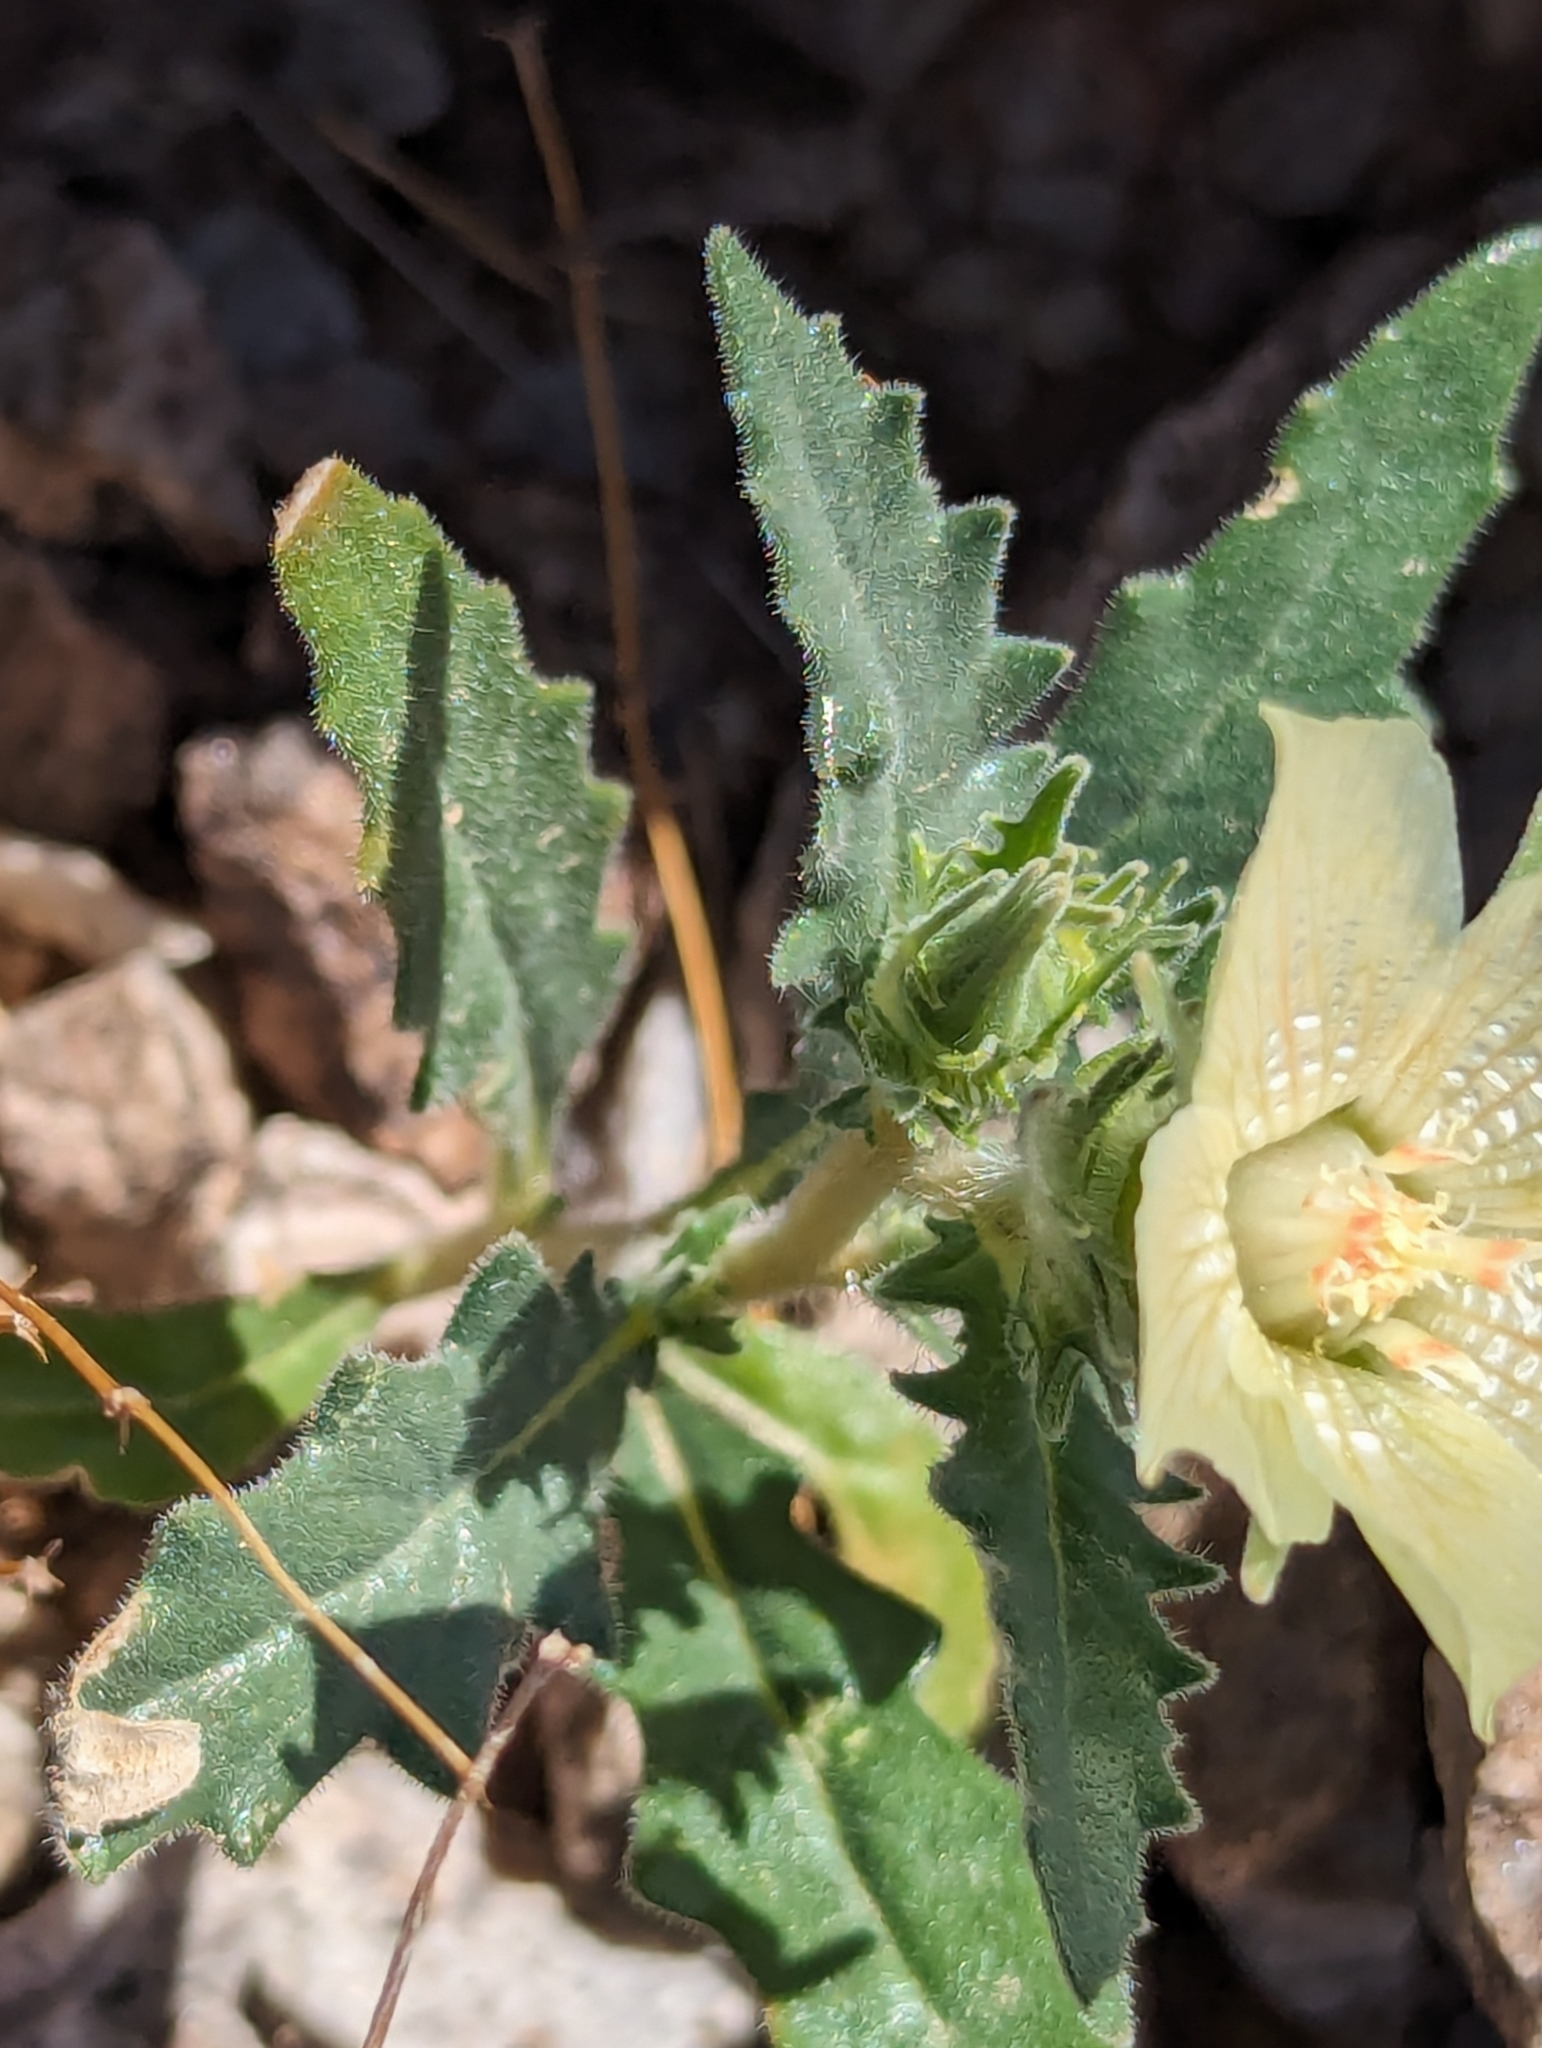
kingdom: Plantae
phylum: Tracheophyta
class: Magnoliopsida
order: Cornales
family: Loasaceae
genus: Mentzelia
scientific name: Mentzelia involucrata
